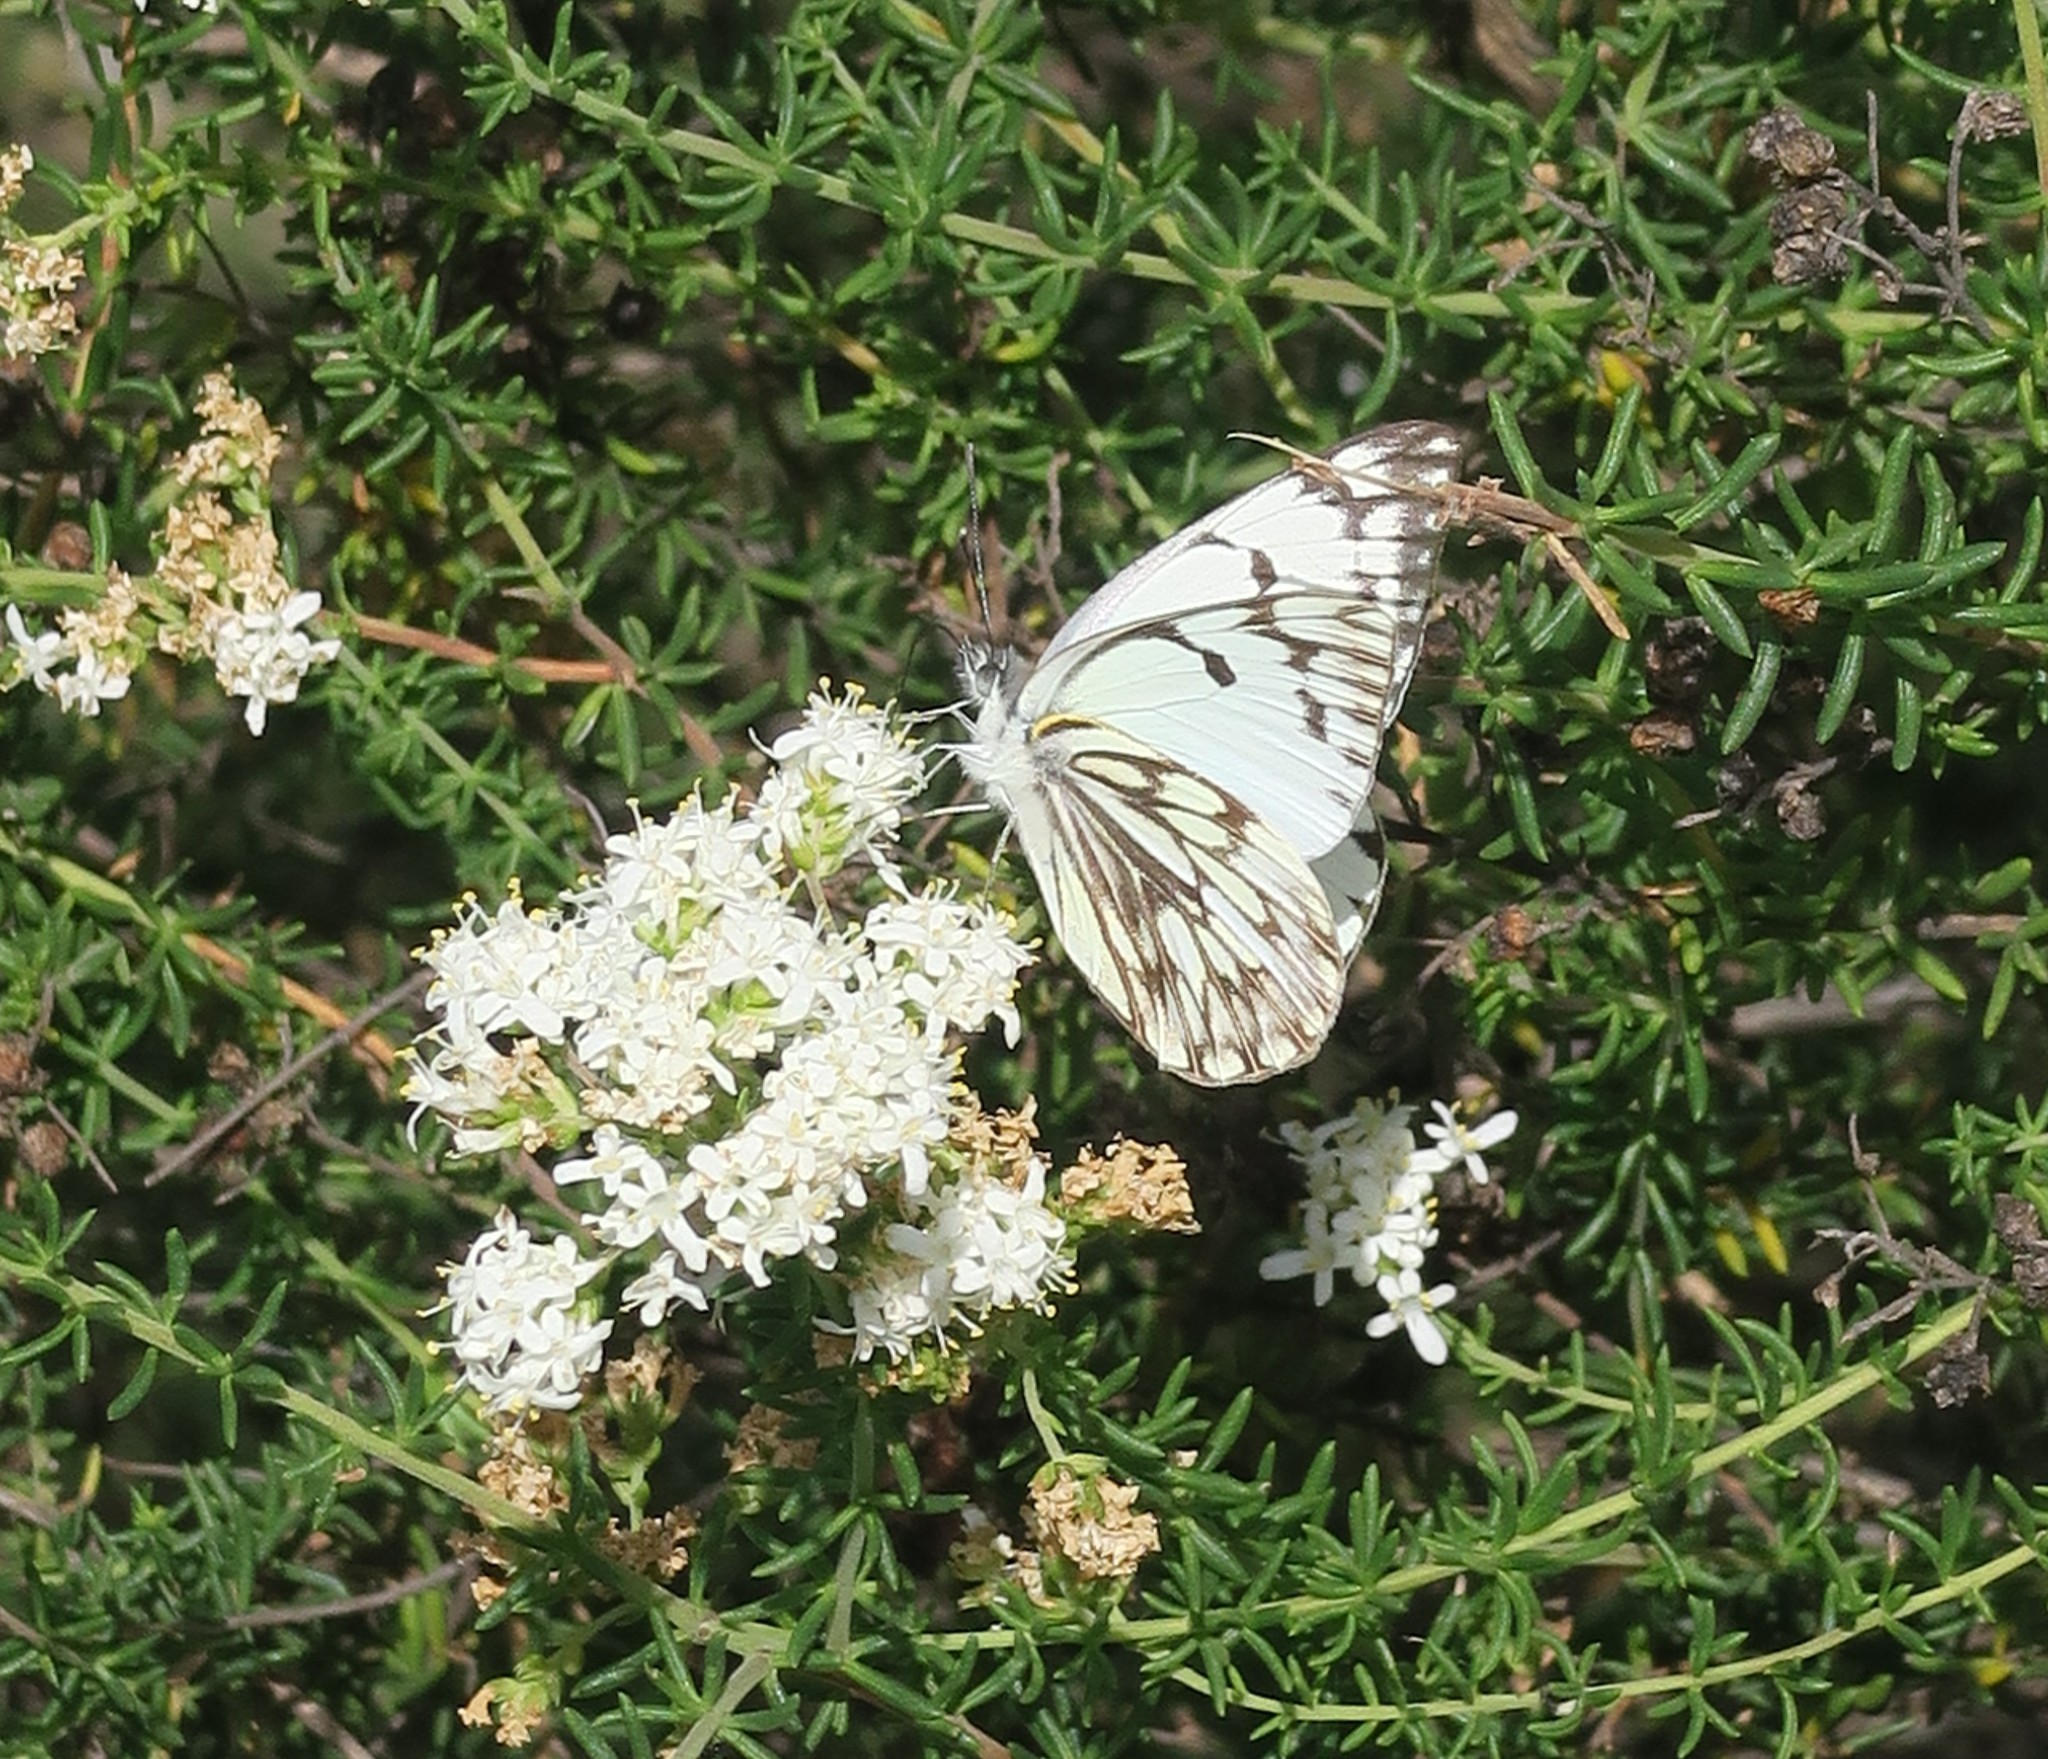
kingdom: Animalia
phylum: Arthropoda
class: Insecta
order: Lepidoptera
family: Pieridae
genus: Belenois
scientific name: Belenois gidica
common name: Pointed caper white
